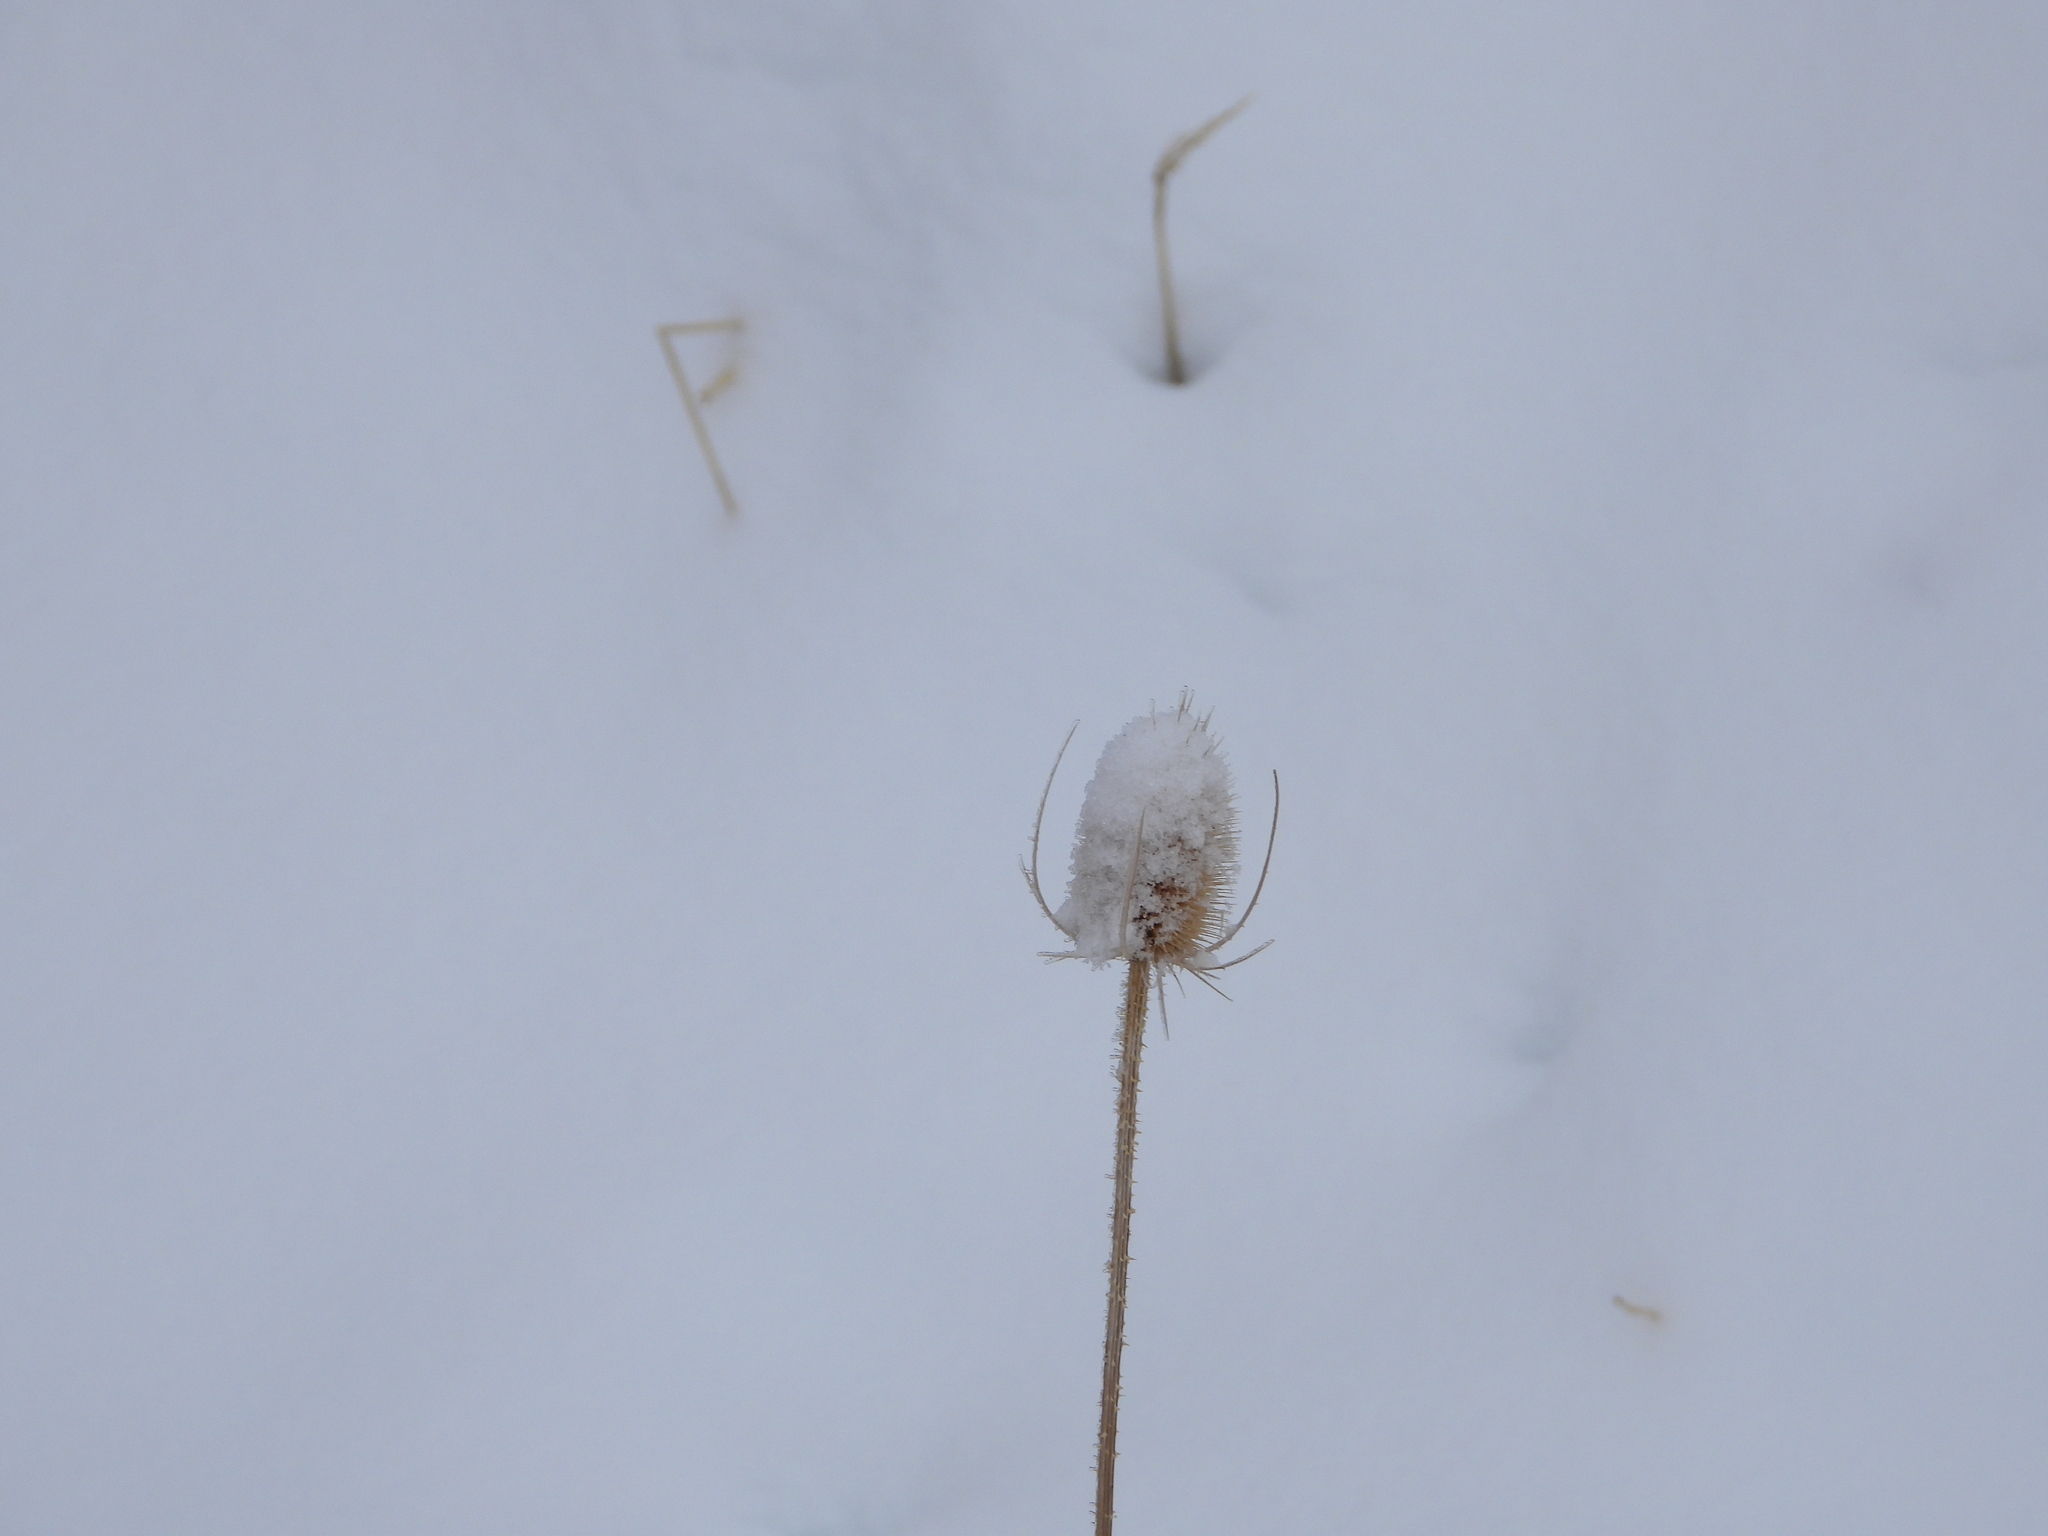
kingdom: Plantae
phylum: Tracheophyta
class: Magnoliopsida
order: Dipsacales
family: Caprifoliaceae
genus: Dipsacus
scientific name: Dipsacus fullonum
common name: Teasel
